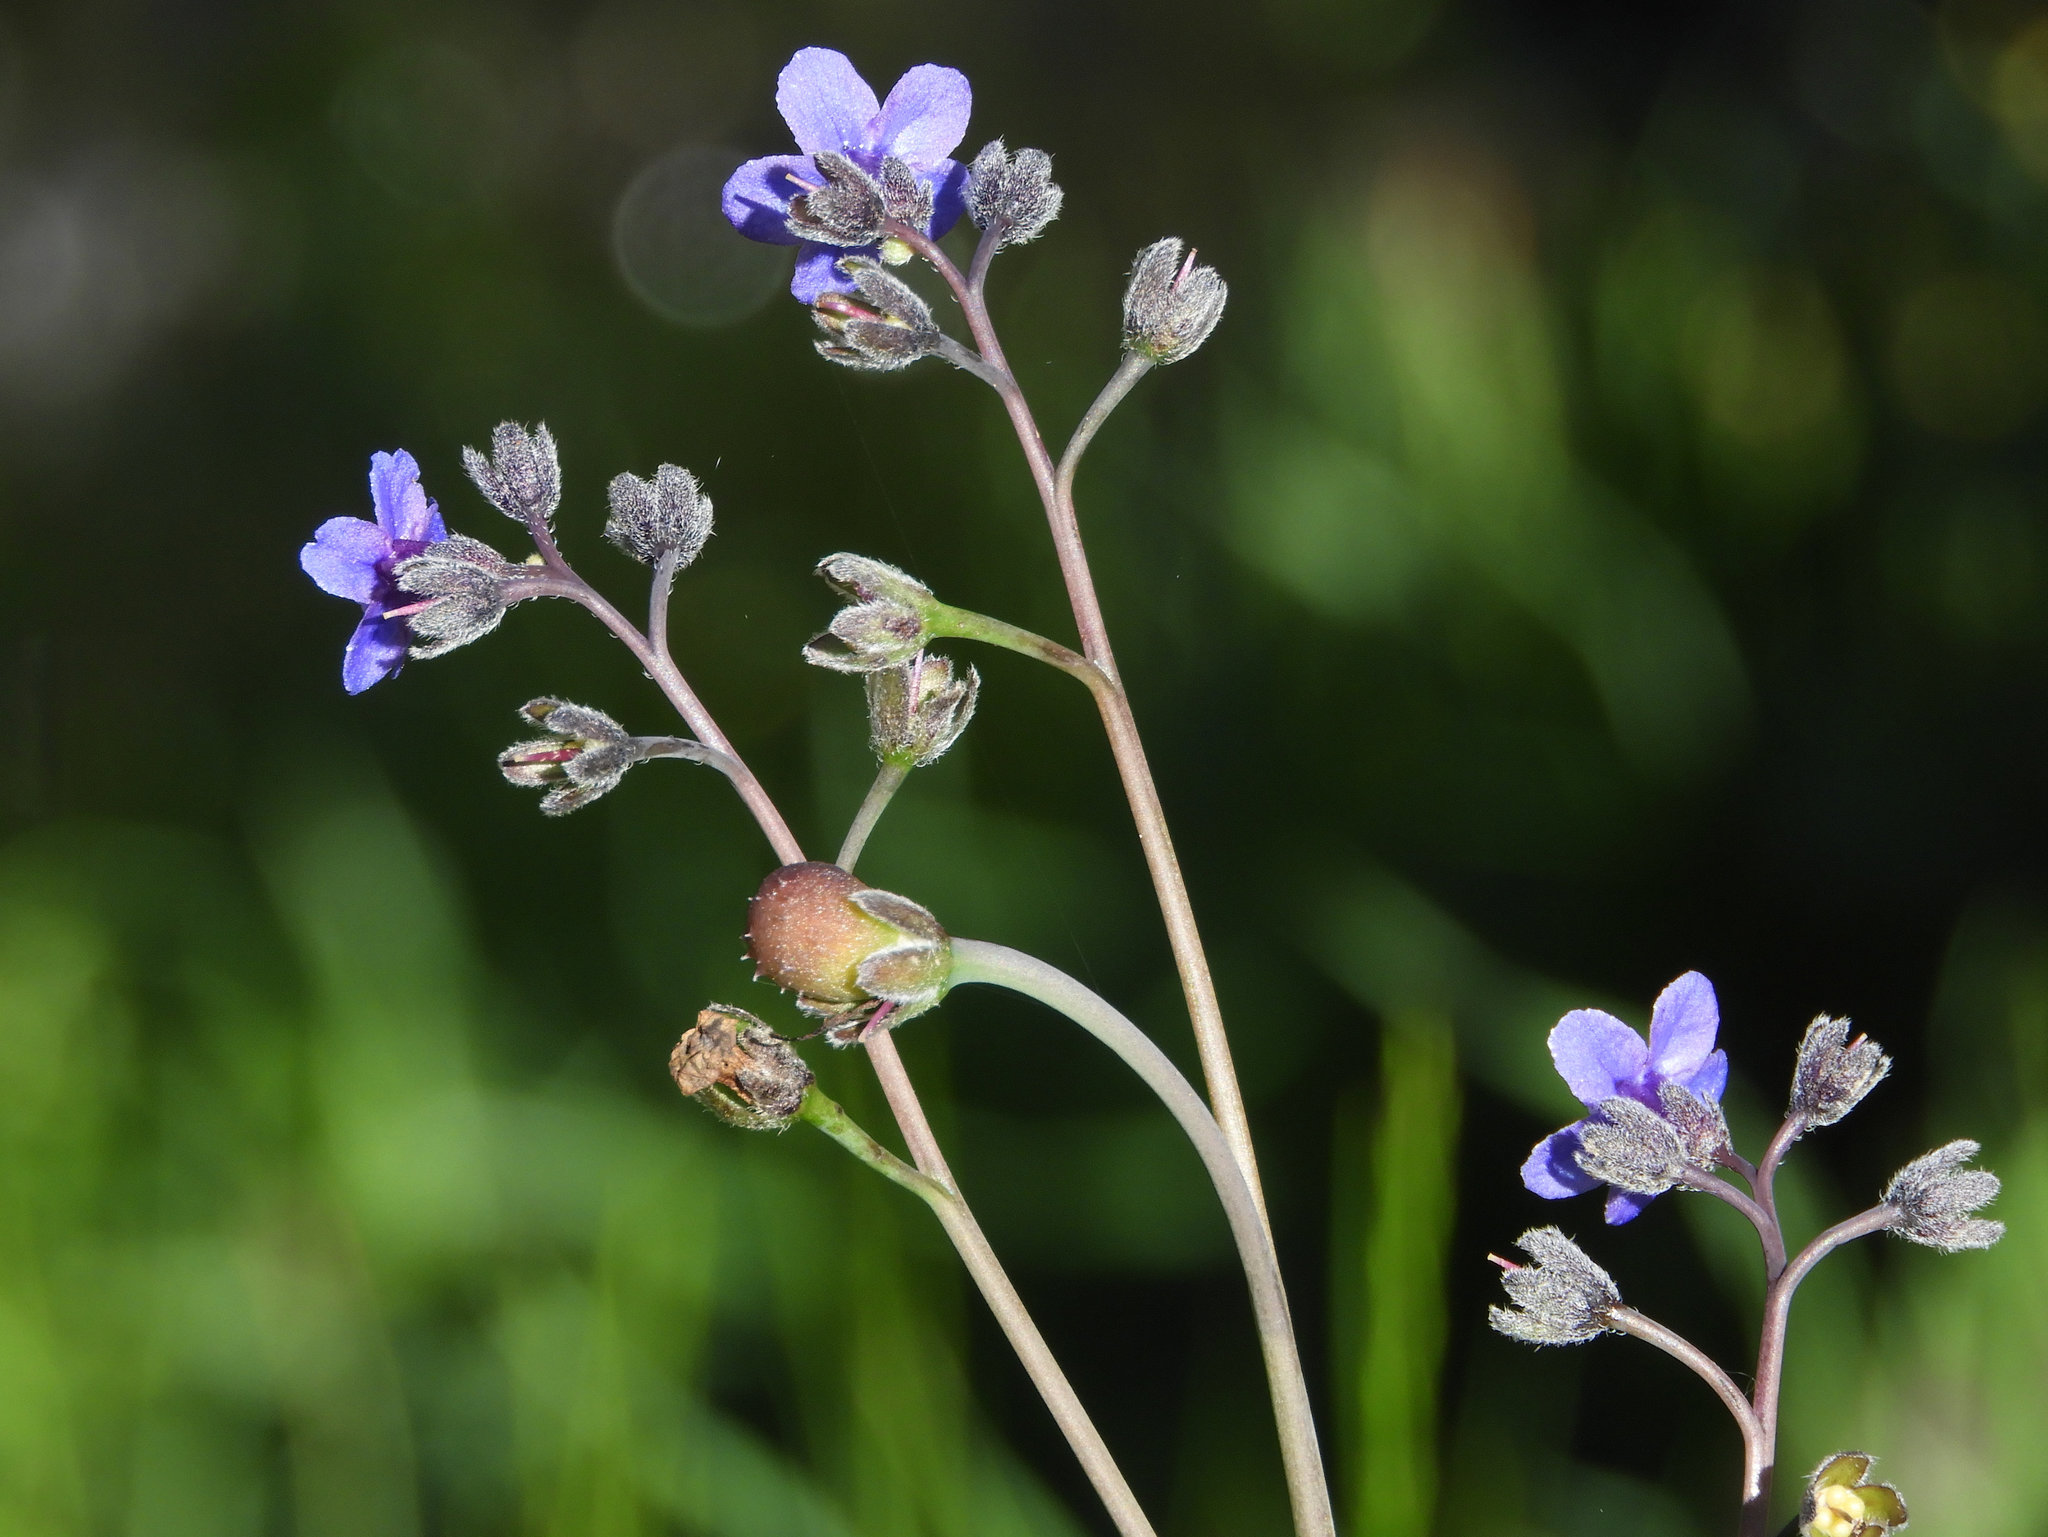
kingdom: Plantae
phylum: Tracheophyta
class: Magnoliopsida
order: Boraginales
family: Boraginaceae
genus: Adelinia
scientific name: Adelinia grande
